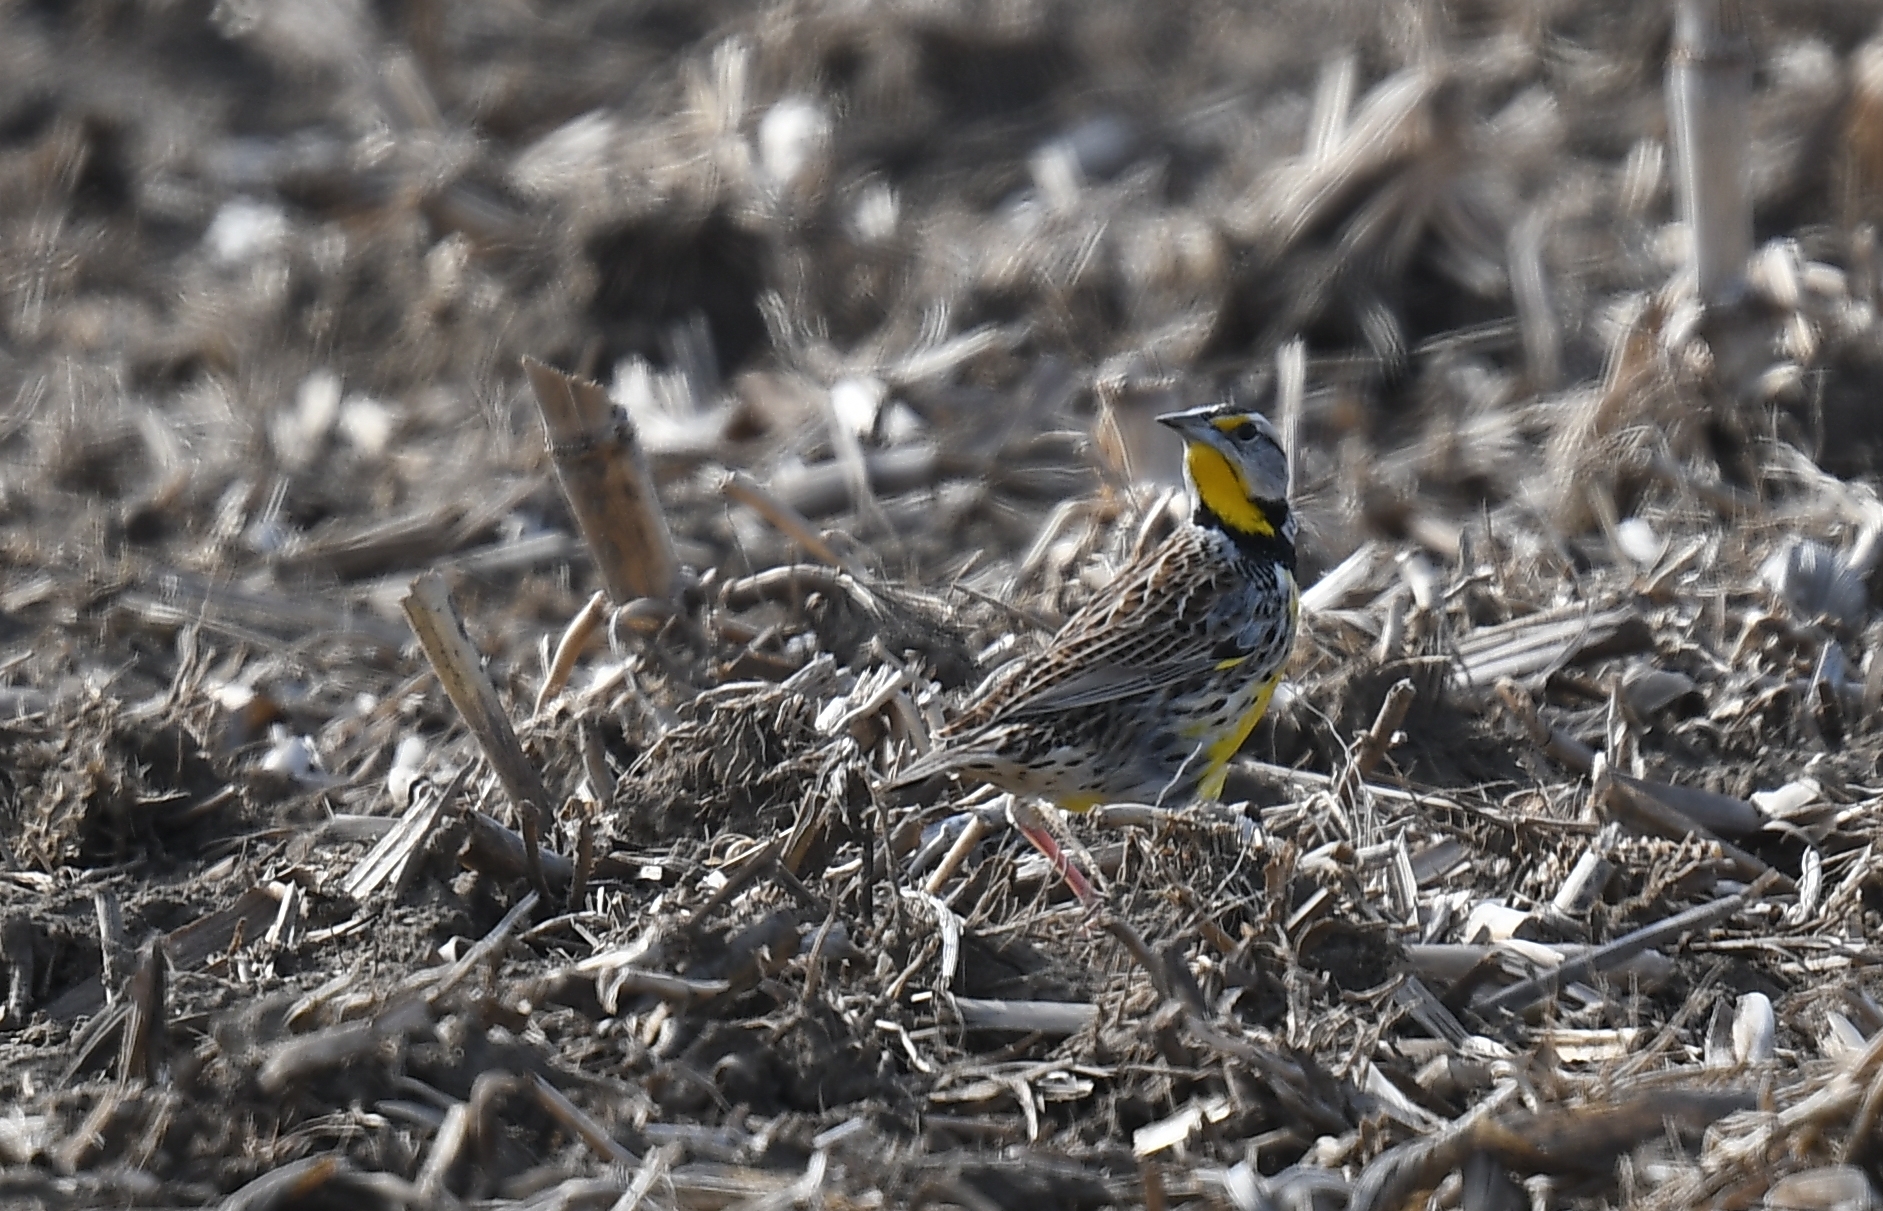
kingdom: Animalia
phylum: Chordata
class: Aves
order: Passeriformes
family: Icteridae
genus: Sturnella
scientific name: Sturnella magna
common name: Eastern meadowlark
